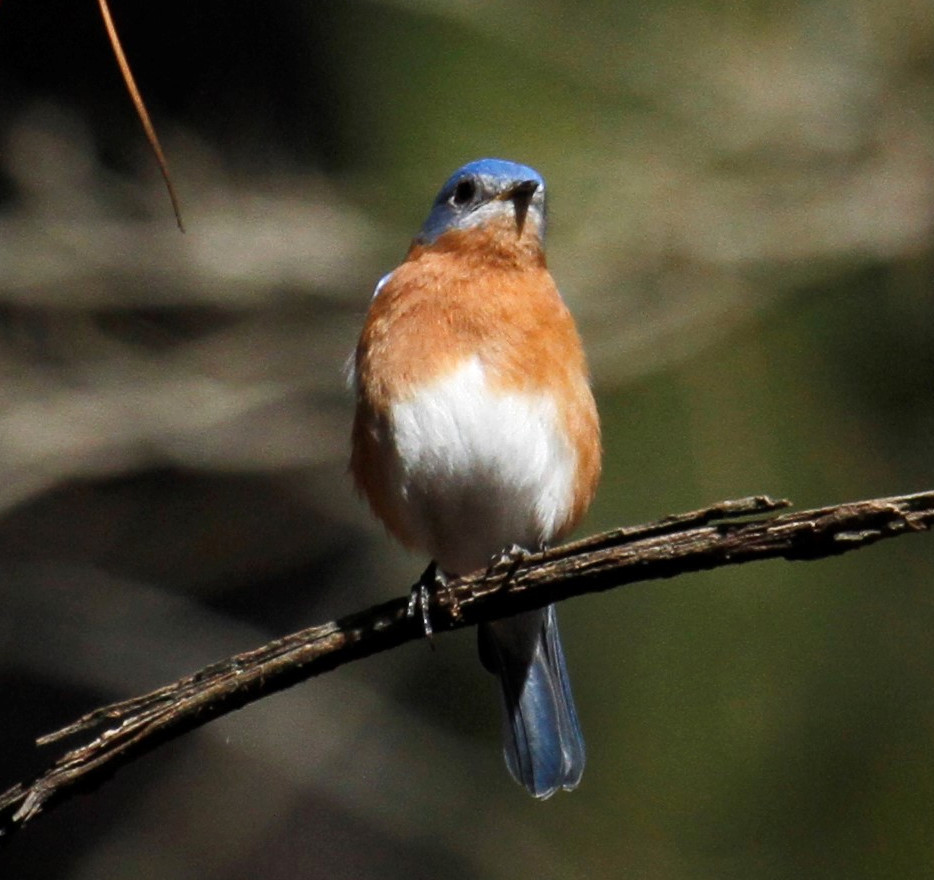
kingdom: Animalia
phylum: Chordata
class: Aves
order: Passeriformes
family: Turdidae
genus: Sialia
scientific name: Sialia sialis
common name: Eastern bluebird
